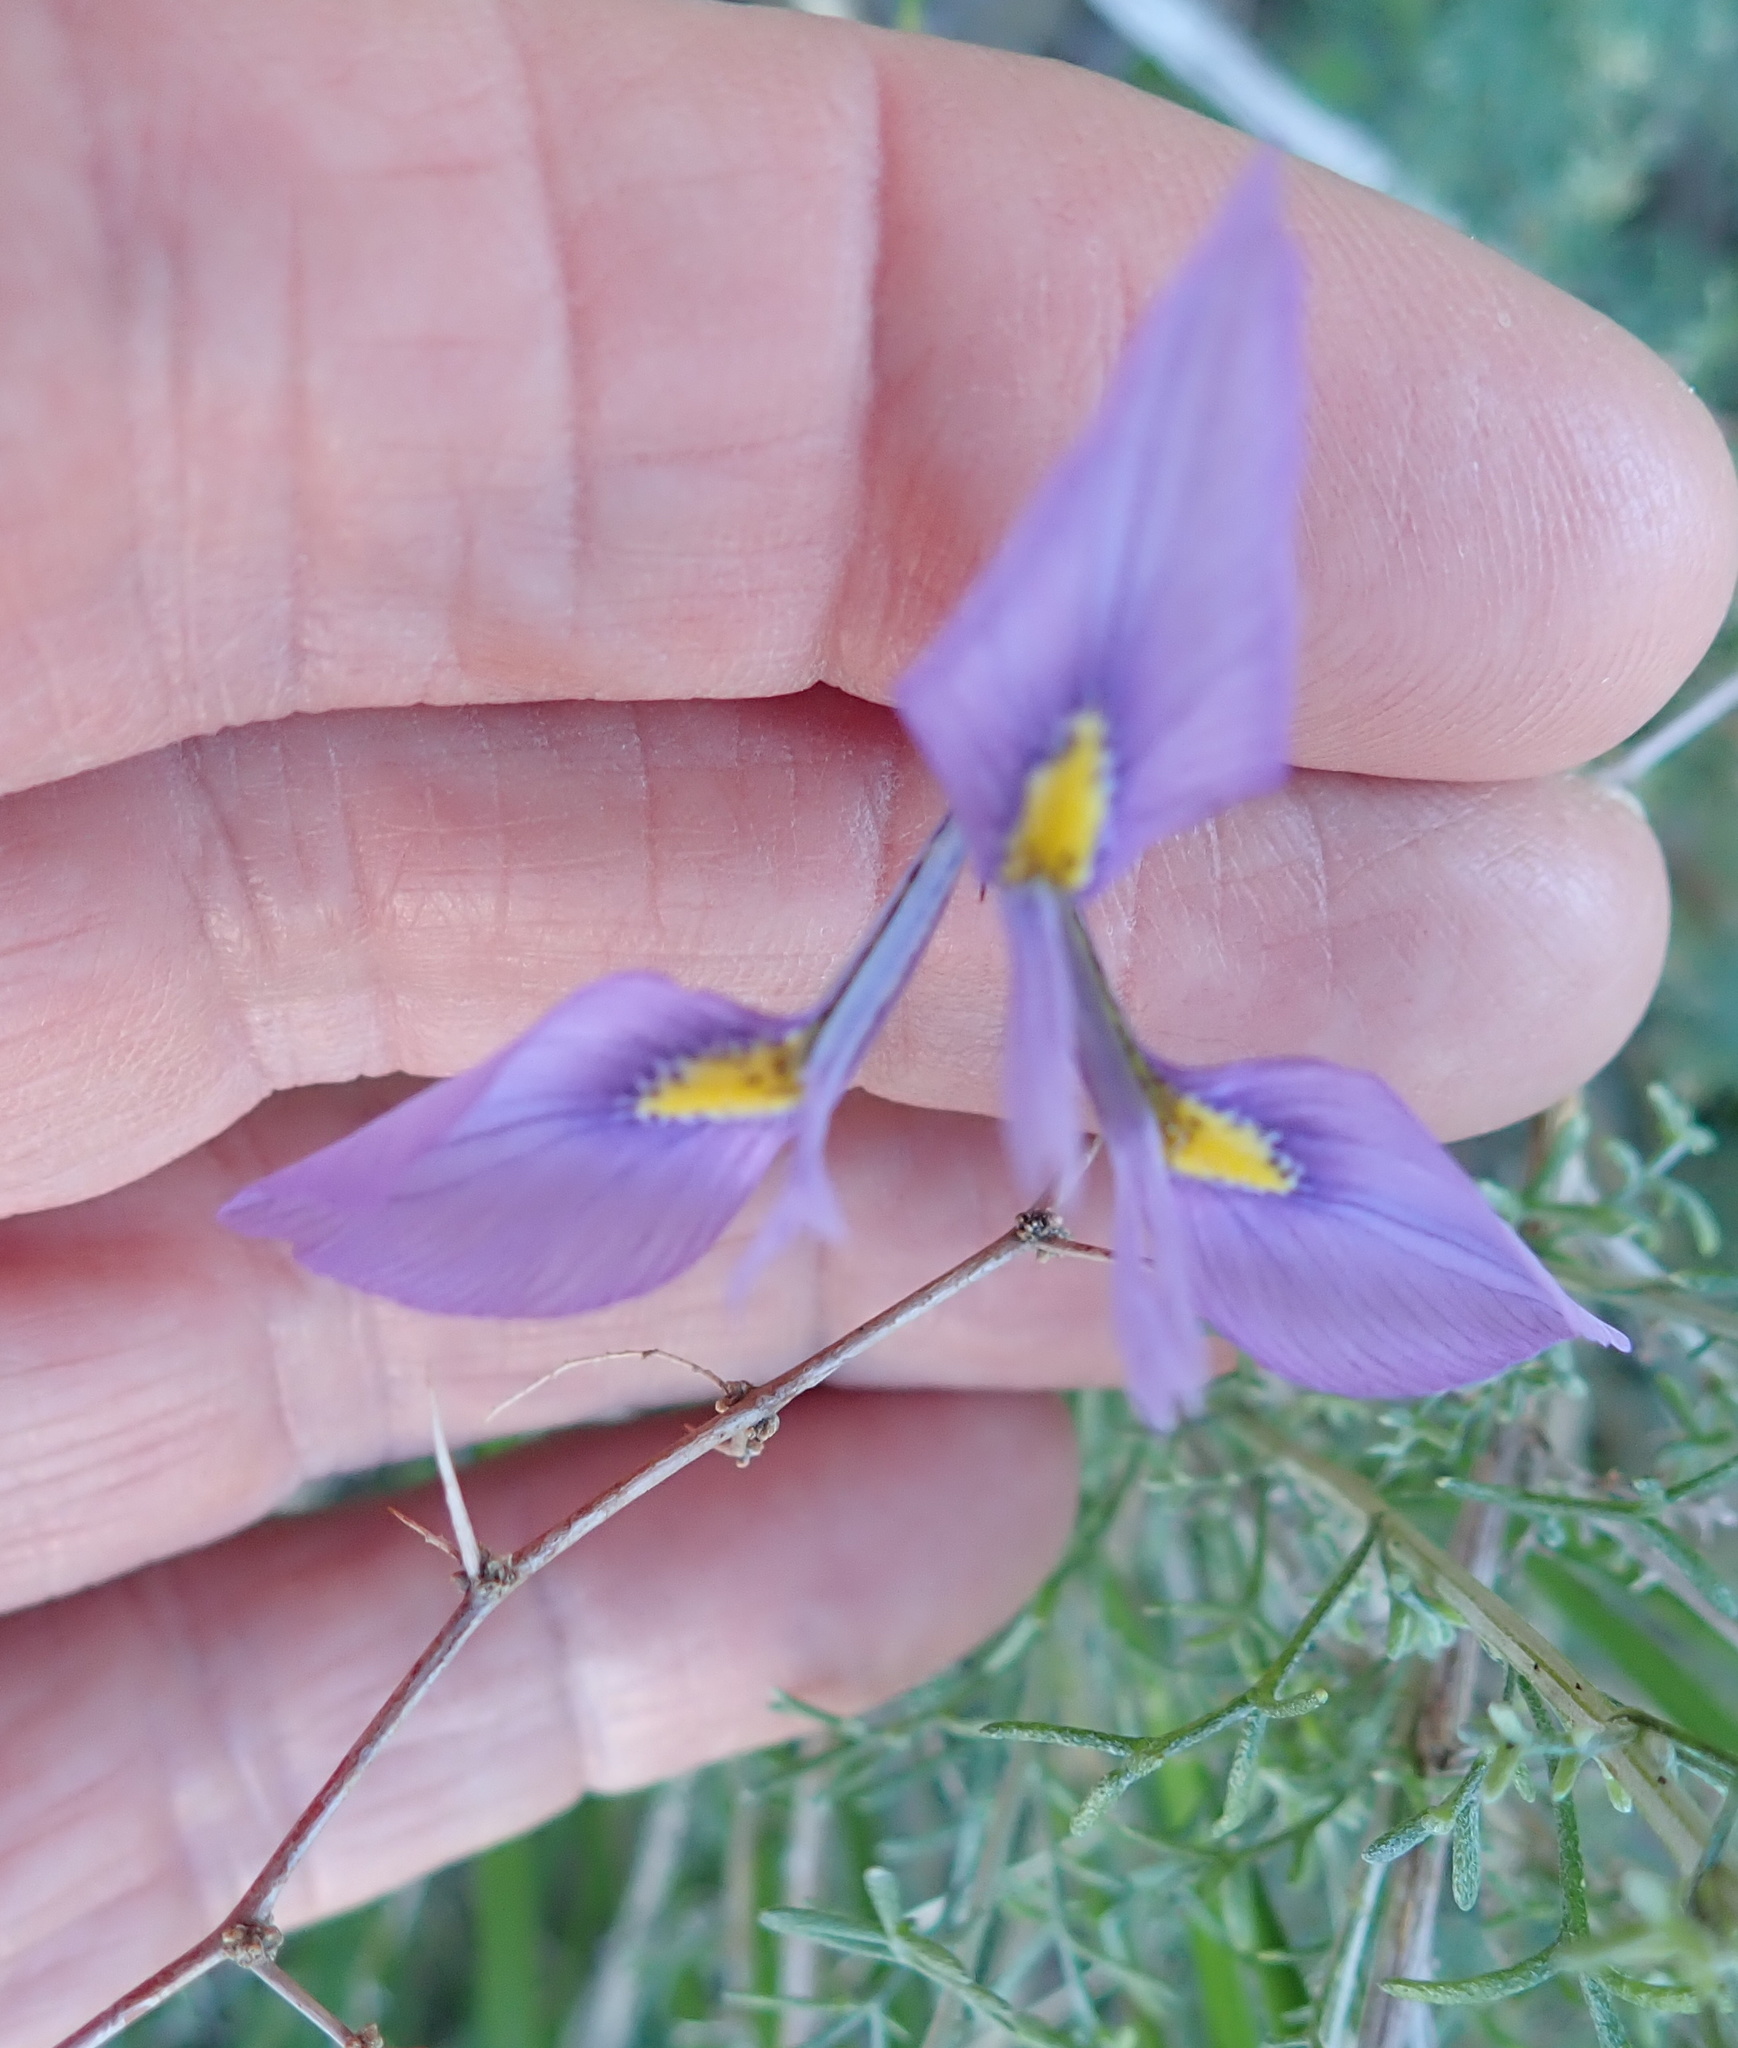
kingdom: Plantae
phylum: Tracheophyta
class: Liliopsida
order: Asparagales
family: Iridaceae
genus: Moraea
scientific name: Moraea tripetala
